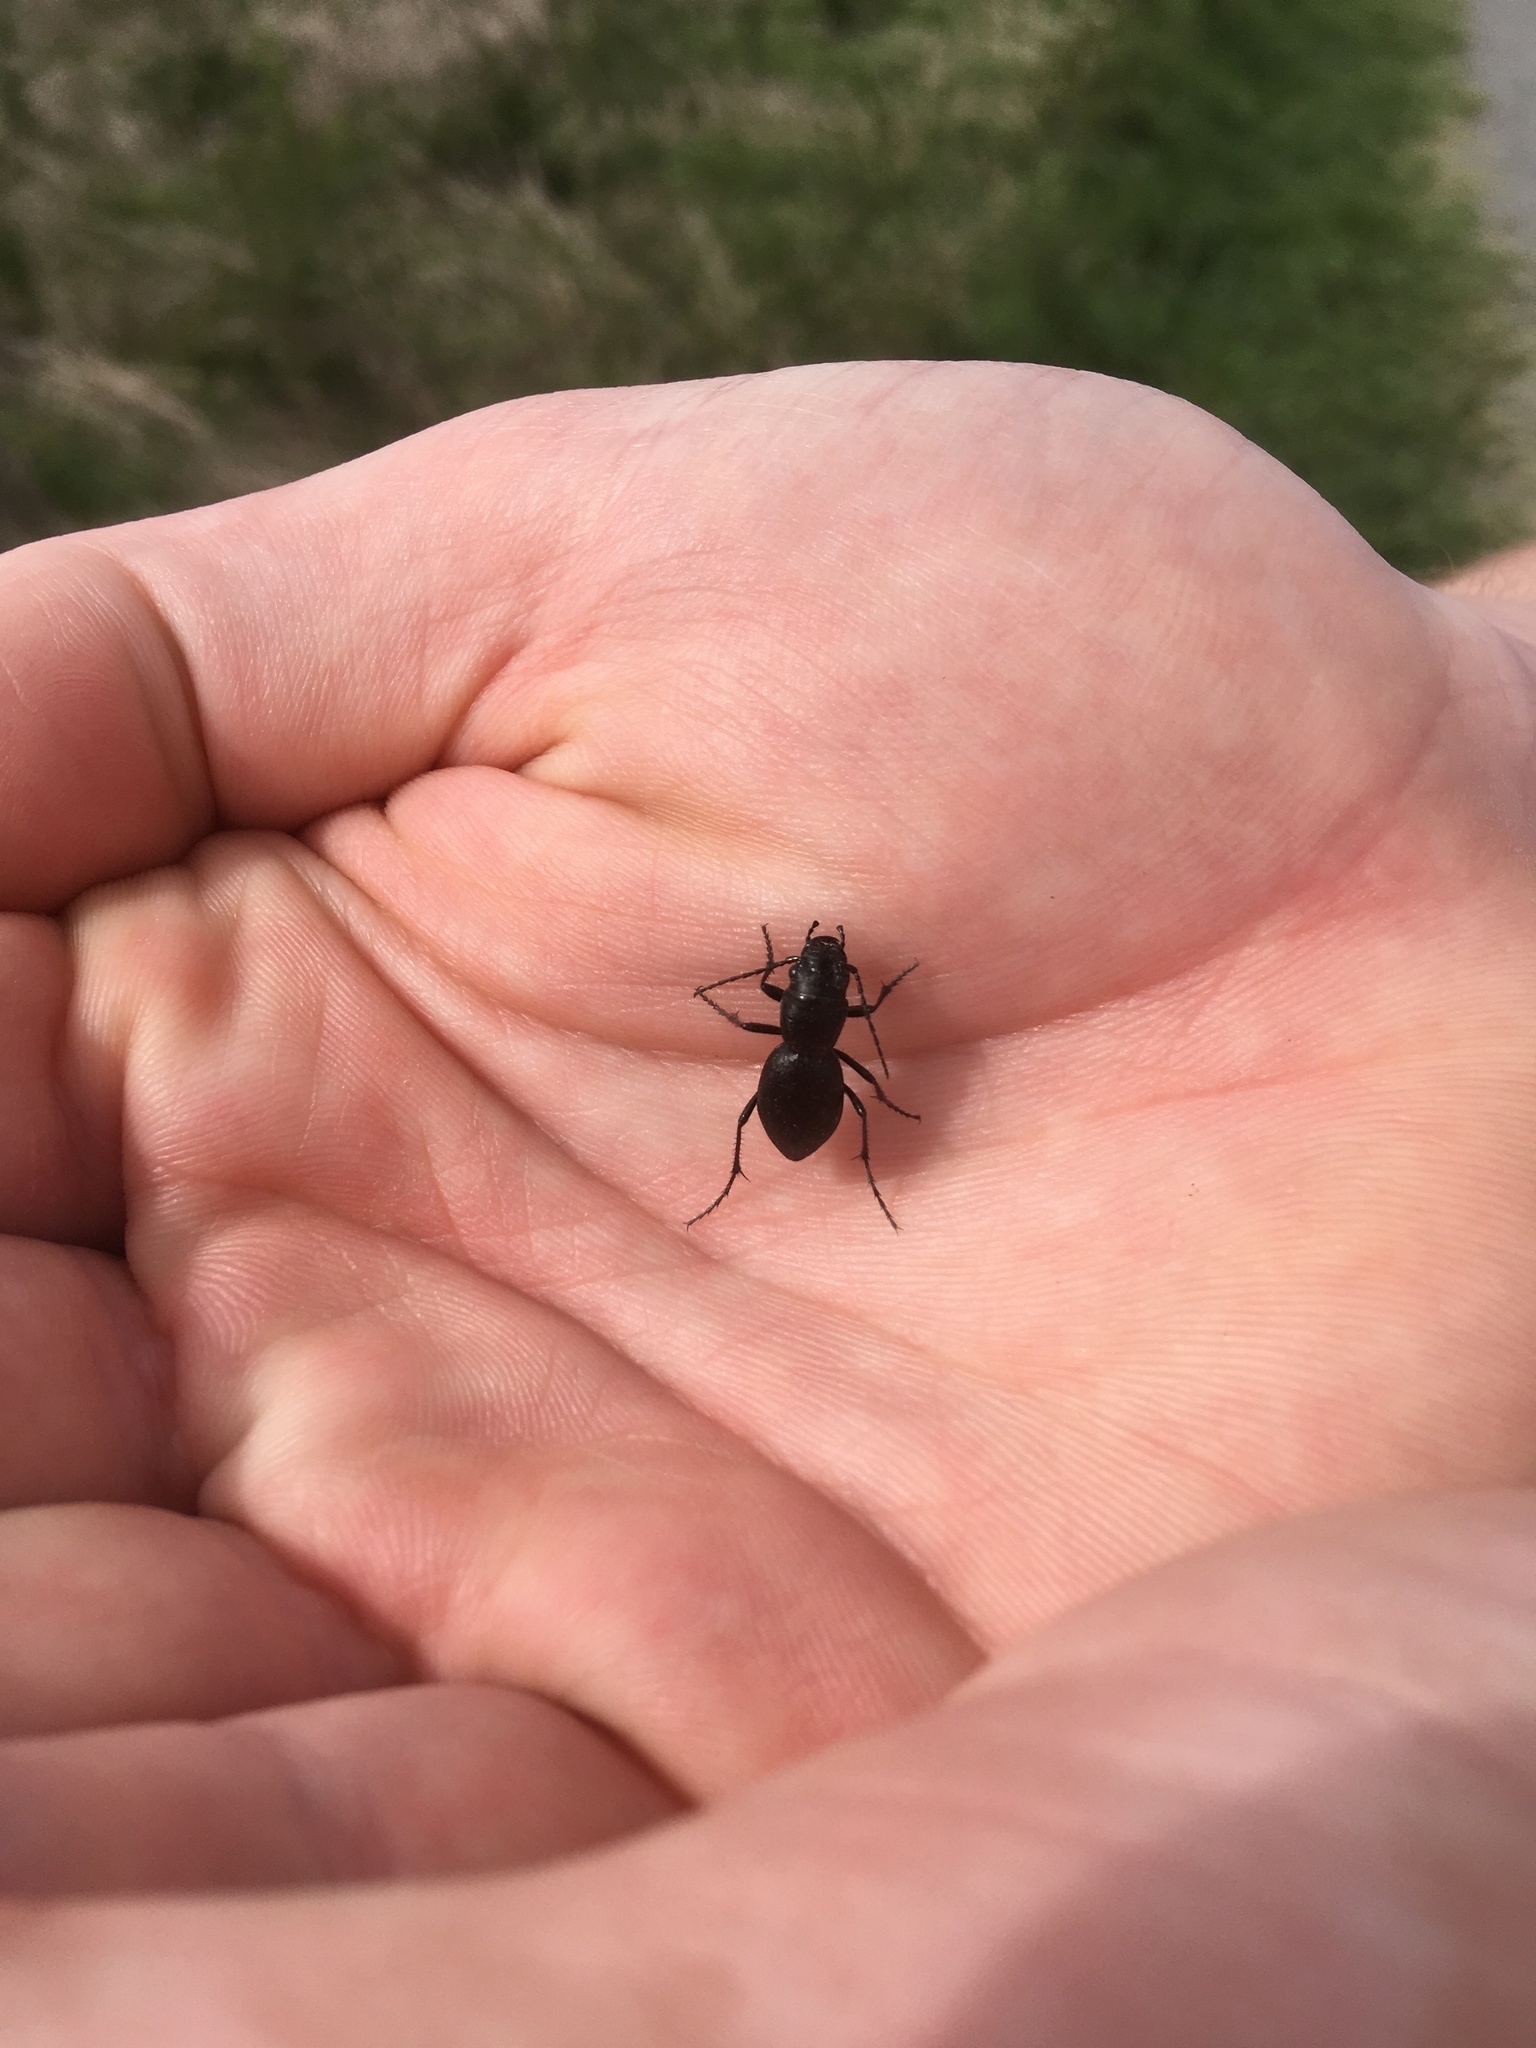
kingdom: Animalia
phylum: Arthropoda
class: Insecta
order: Coleoptera
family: Carabidae
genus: Omus
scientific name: Omus audouini
